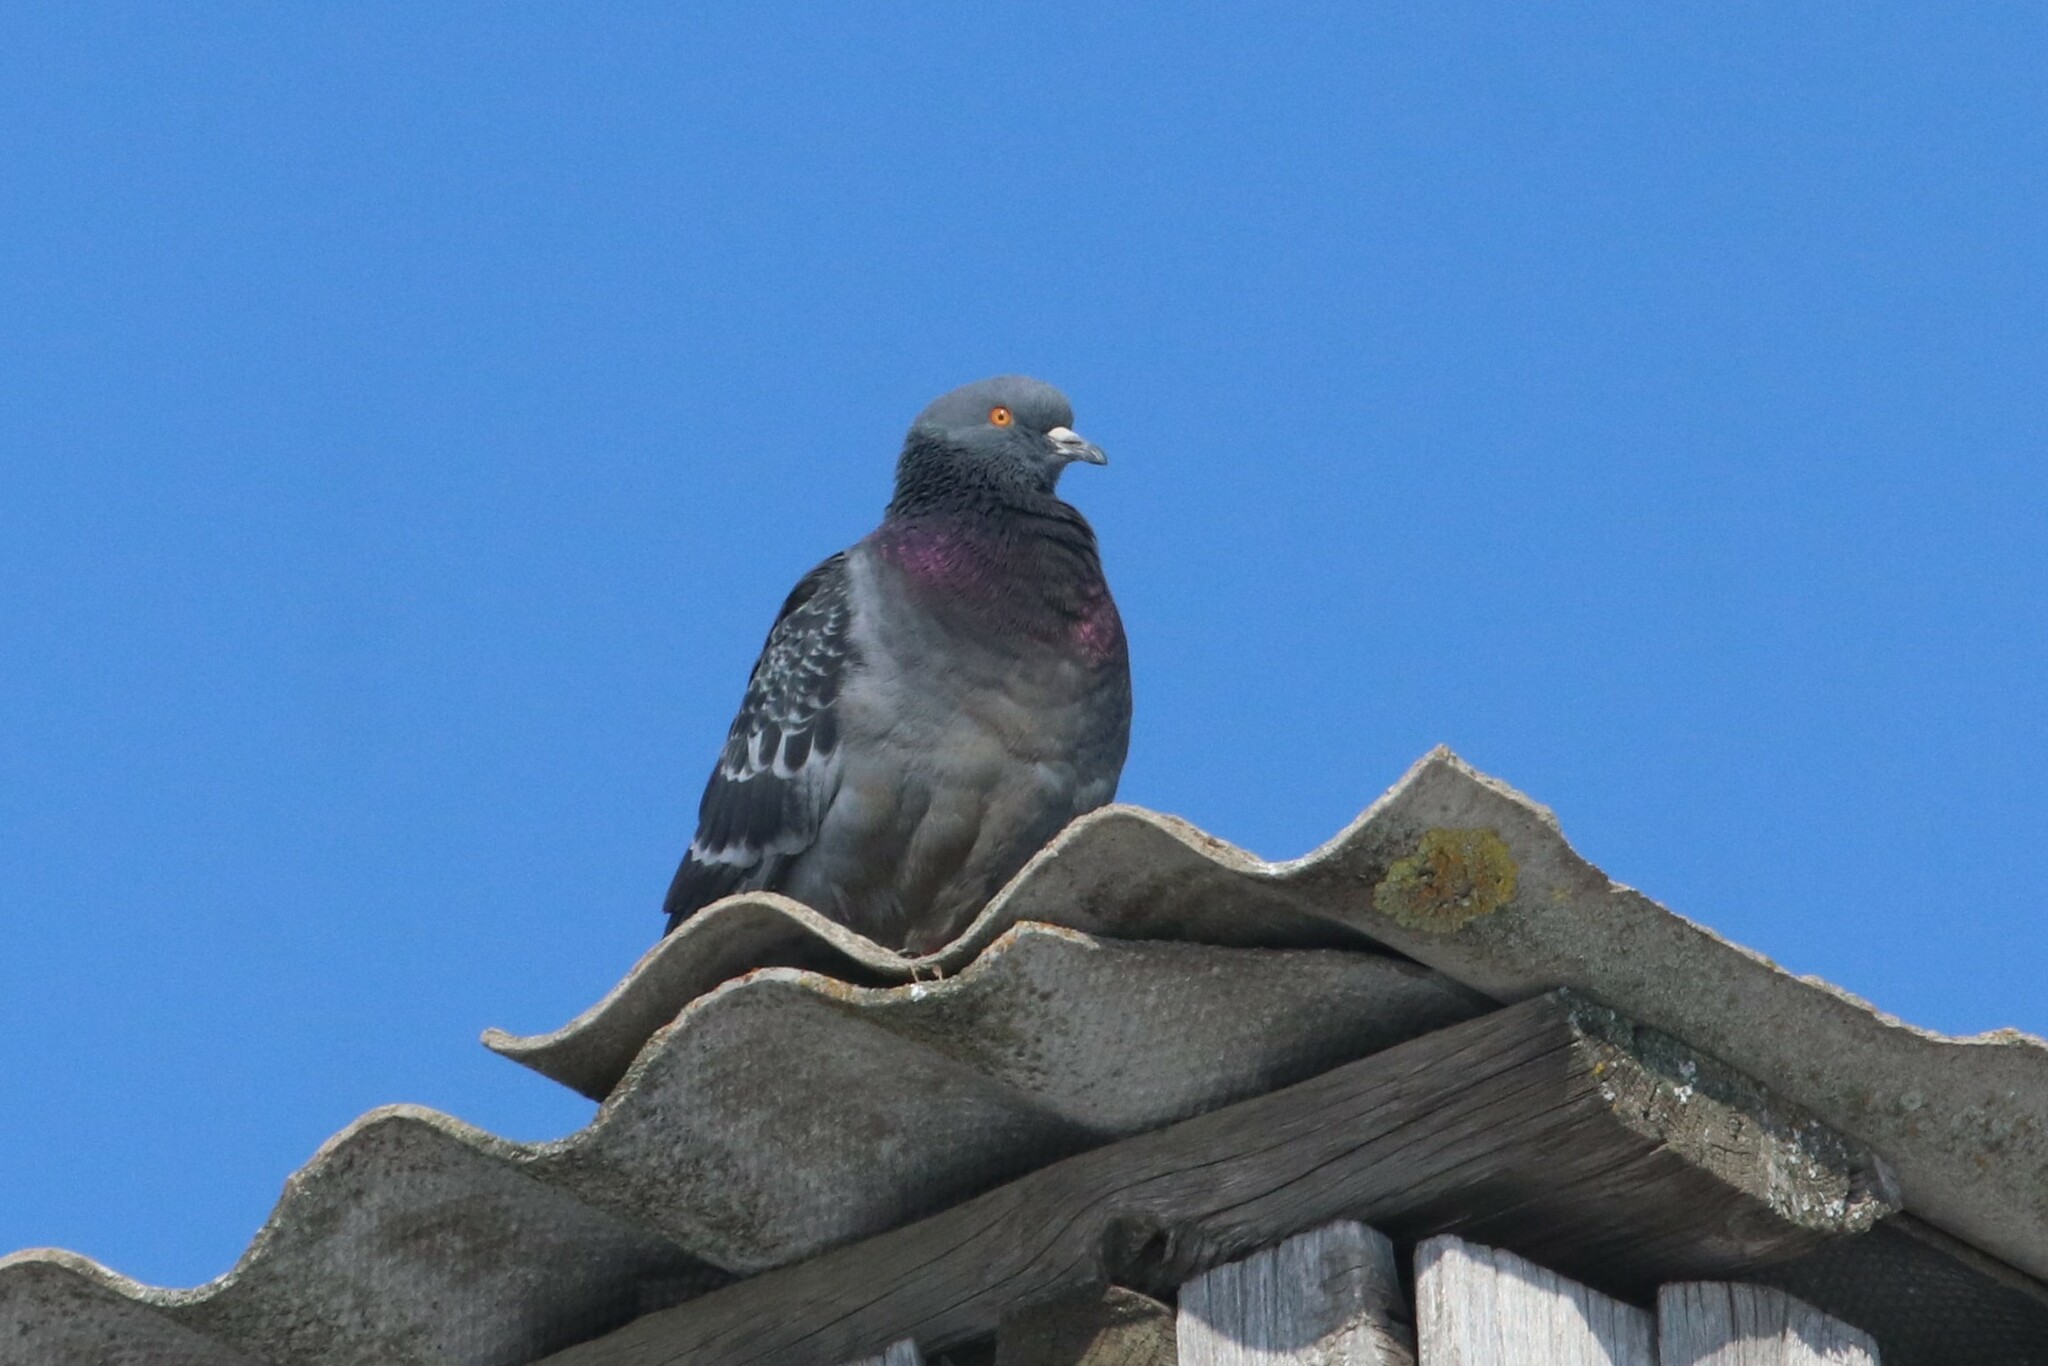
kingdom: Animalia
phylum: Chordata
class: Aves
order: Columbiformes
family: Columbidae
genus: Columba
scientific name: Columba livia
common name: Rock pigeon
